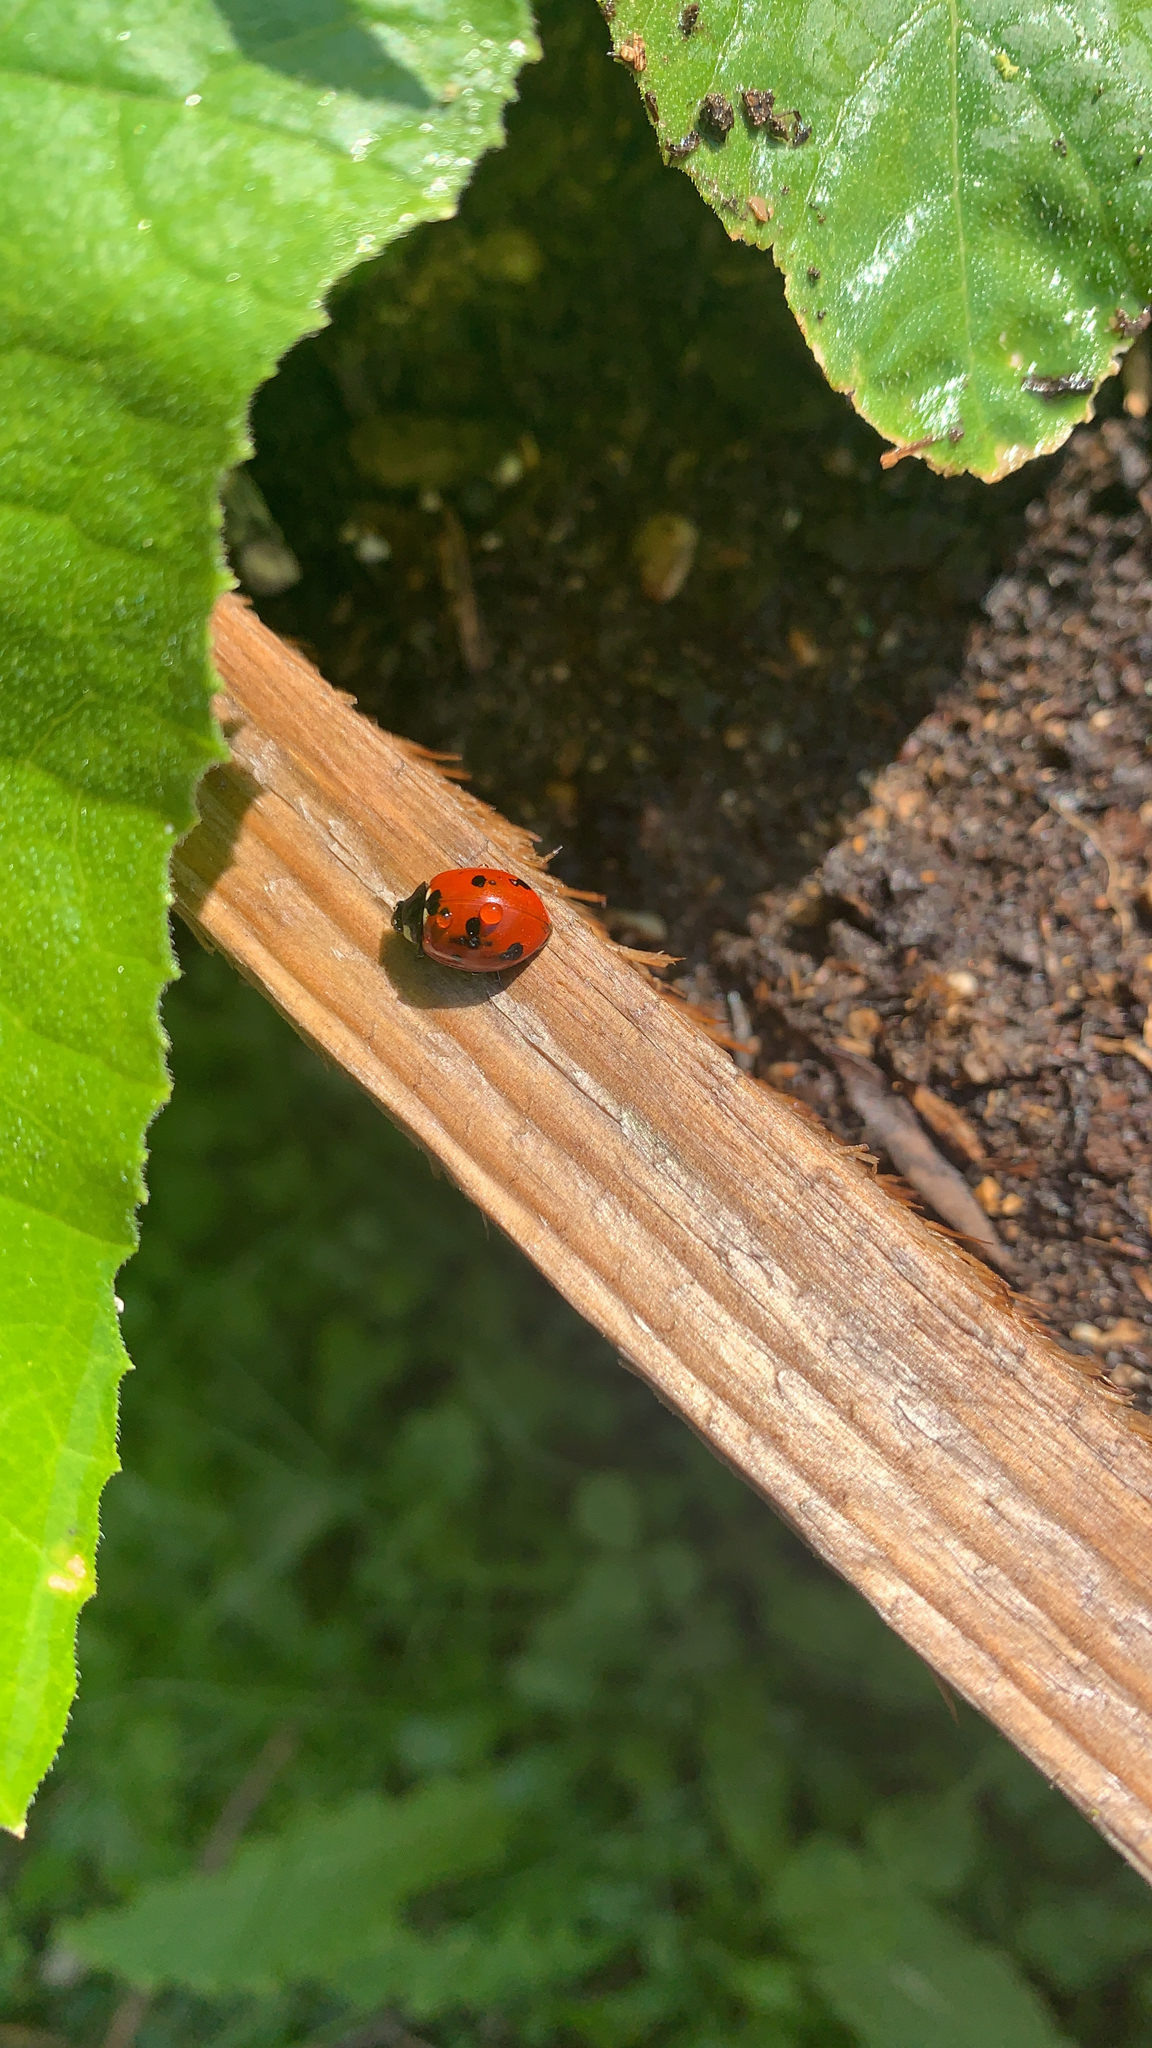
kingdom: Animalia
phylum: Arthropoda
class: Insecta
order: Coleoptera
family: Coccinellidae
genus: Coccinella
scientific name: Coccinella septempunctata
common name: Sevenspotted lady beetle
